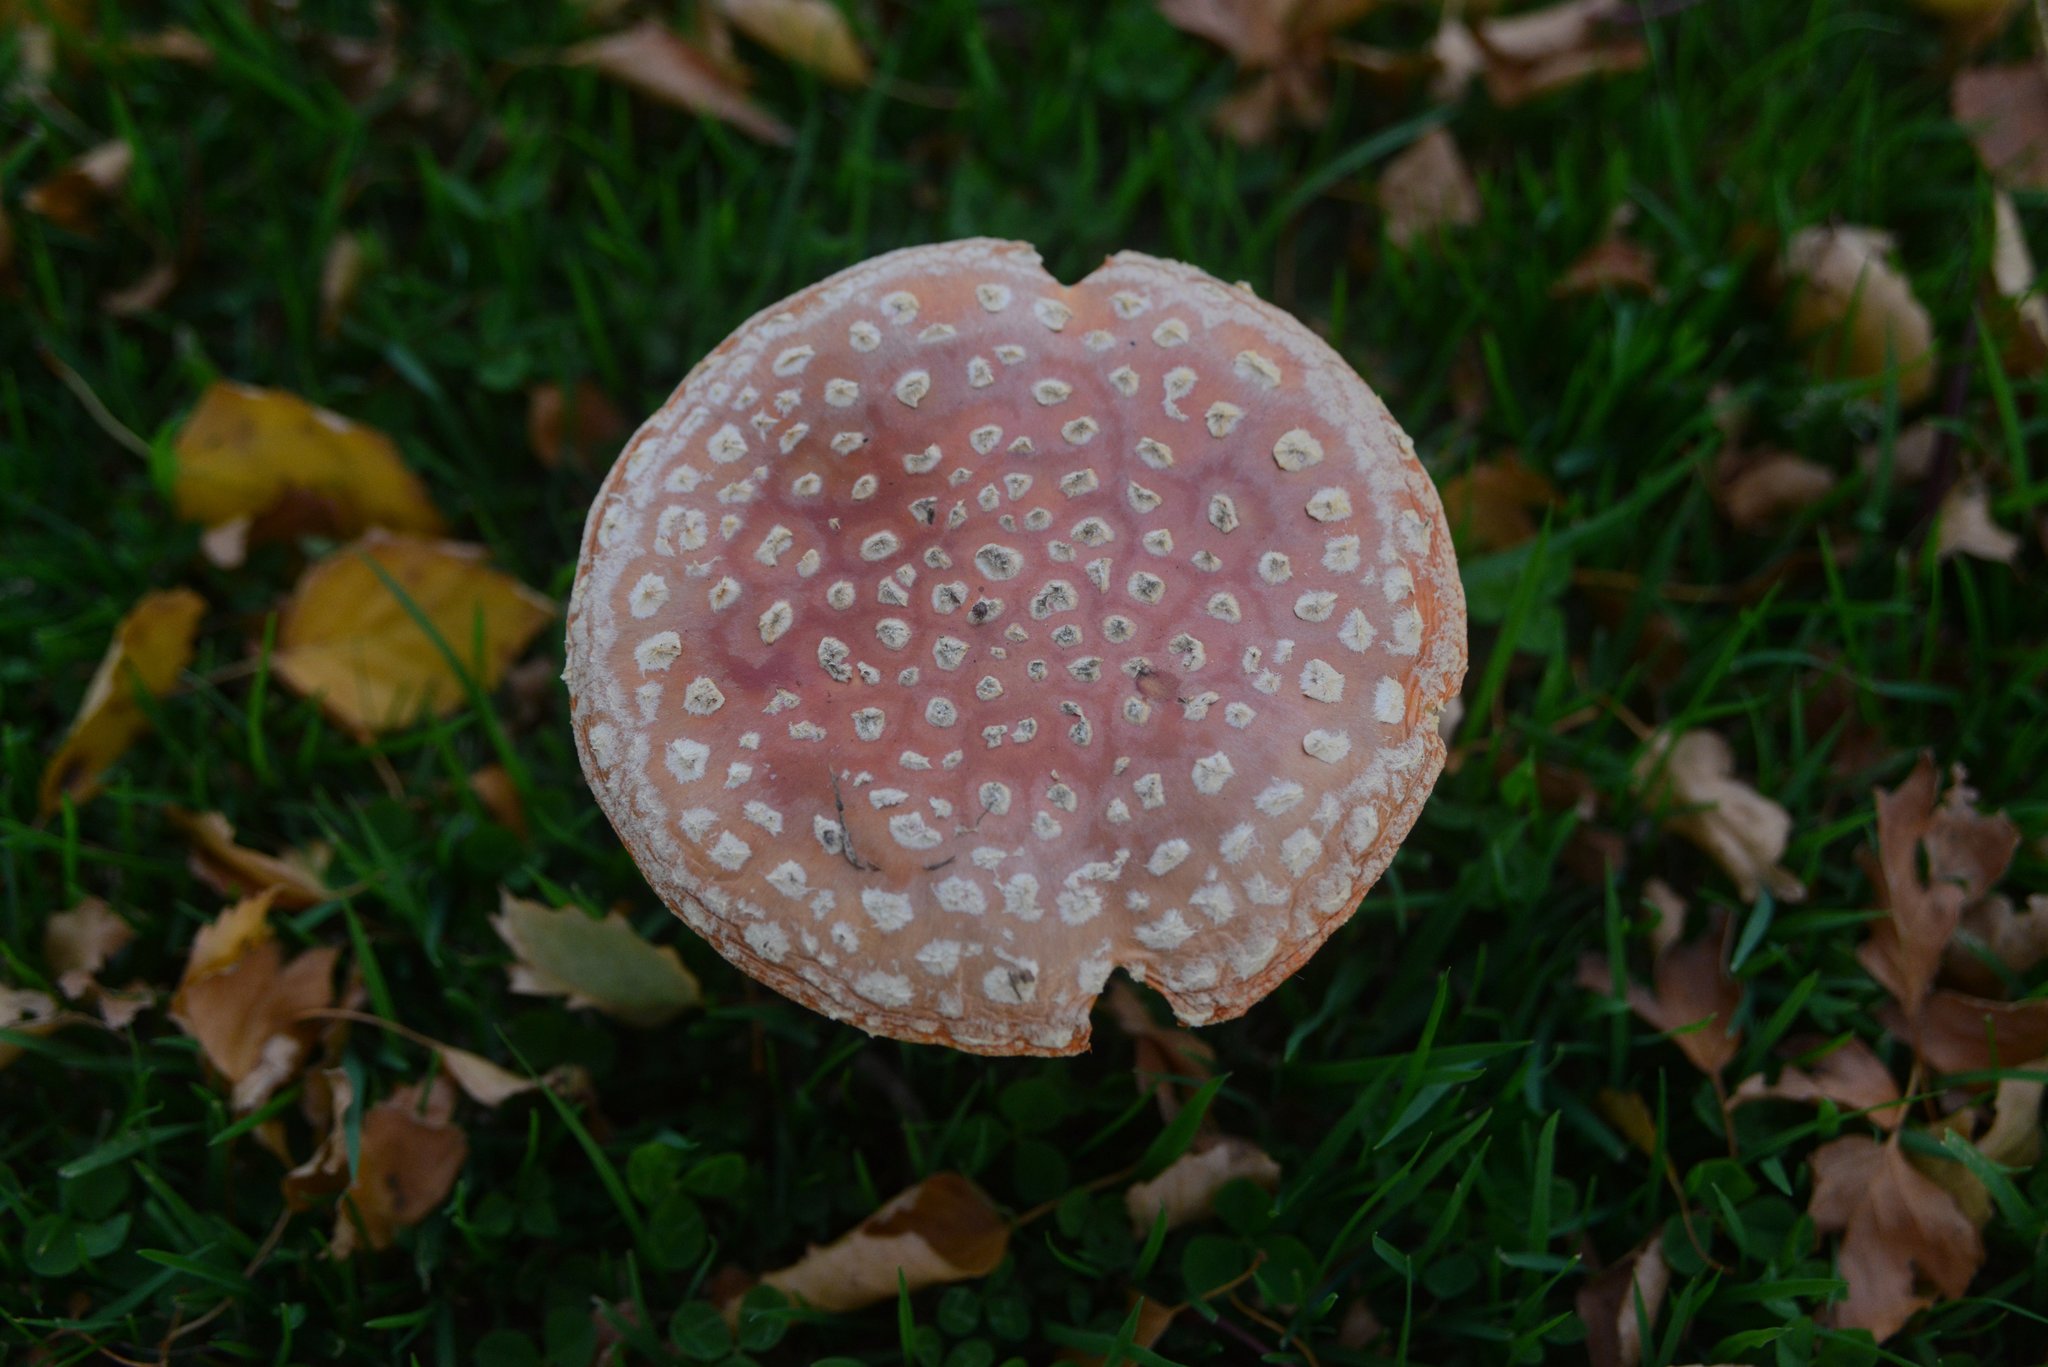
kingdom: Fungi
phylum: Basidiomycota
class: Agaricomycetes
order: Agaricales
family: Amanitaceae
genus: Amanita
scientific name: Amanita muscaria
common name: Fly agaric
